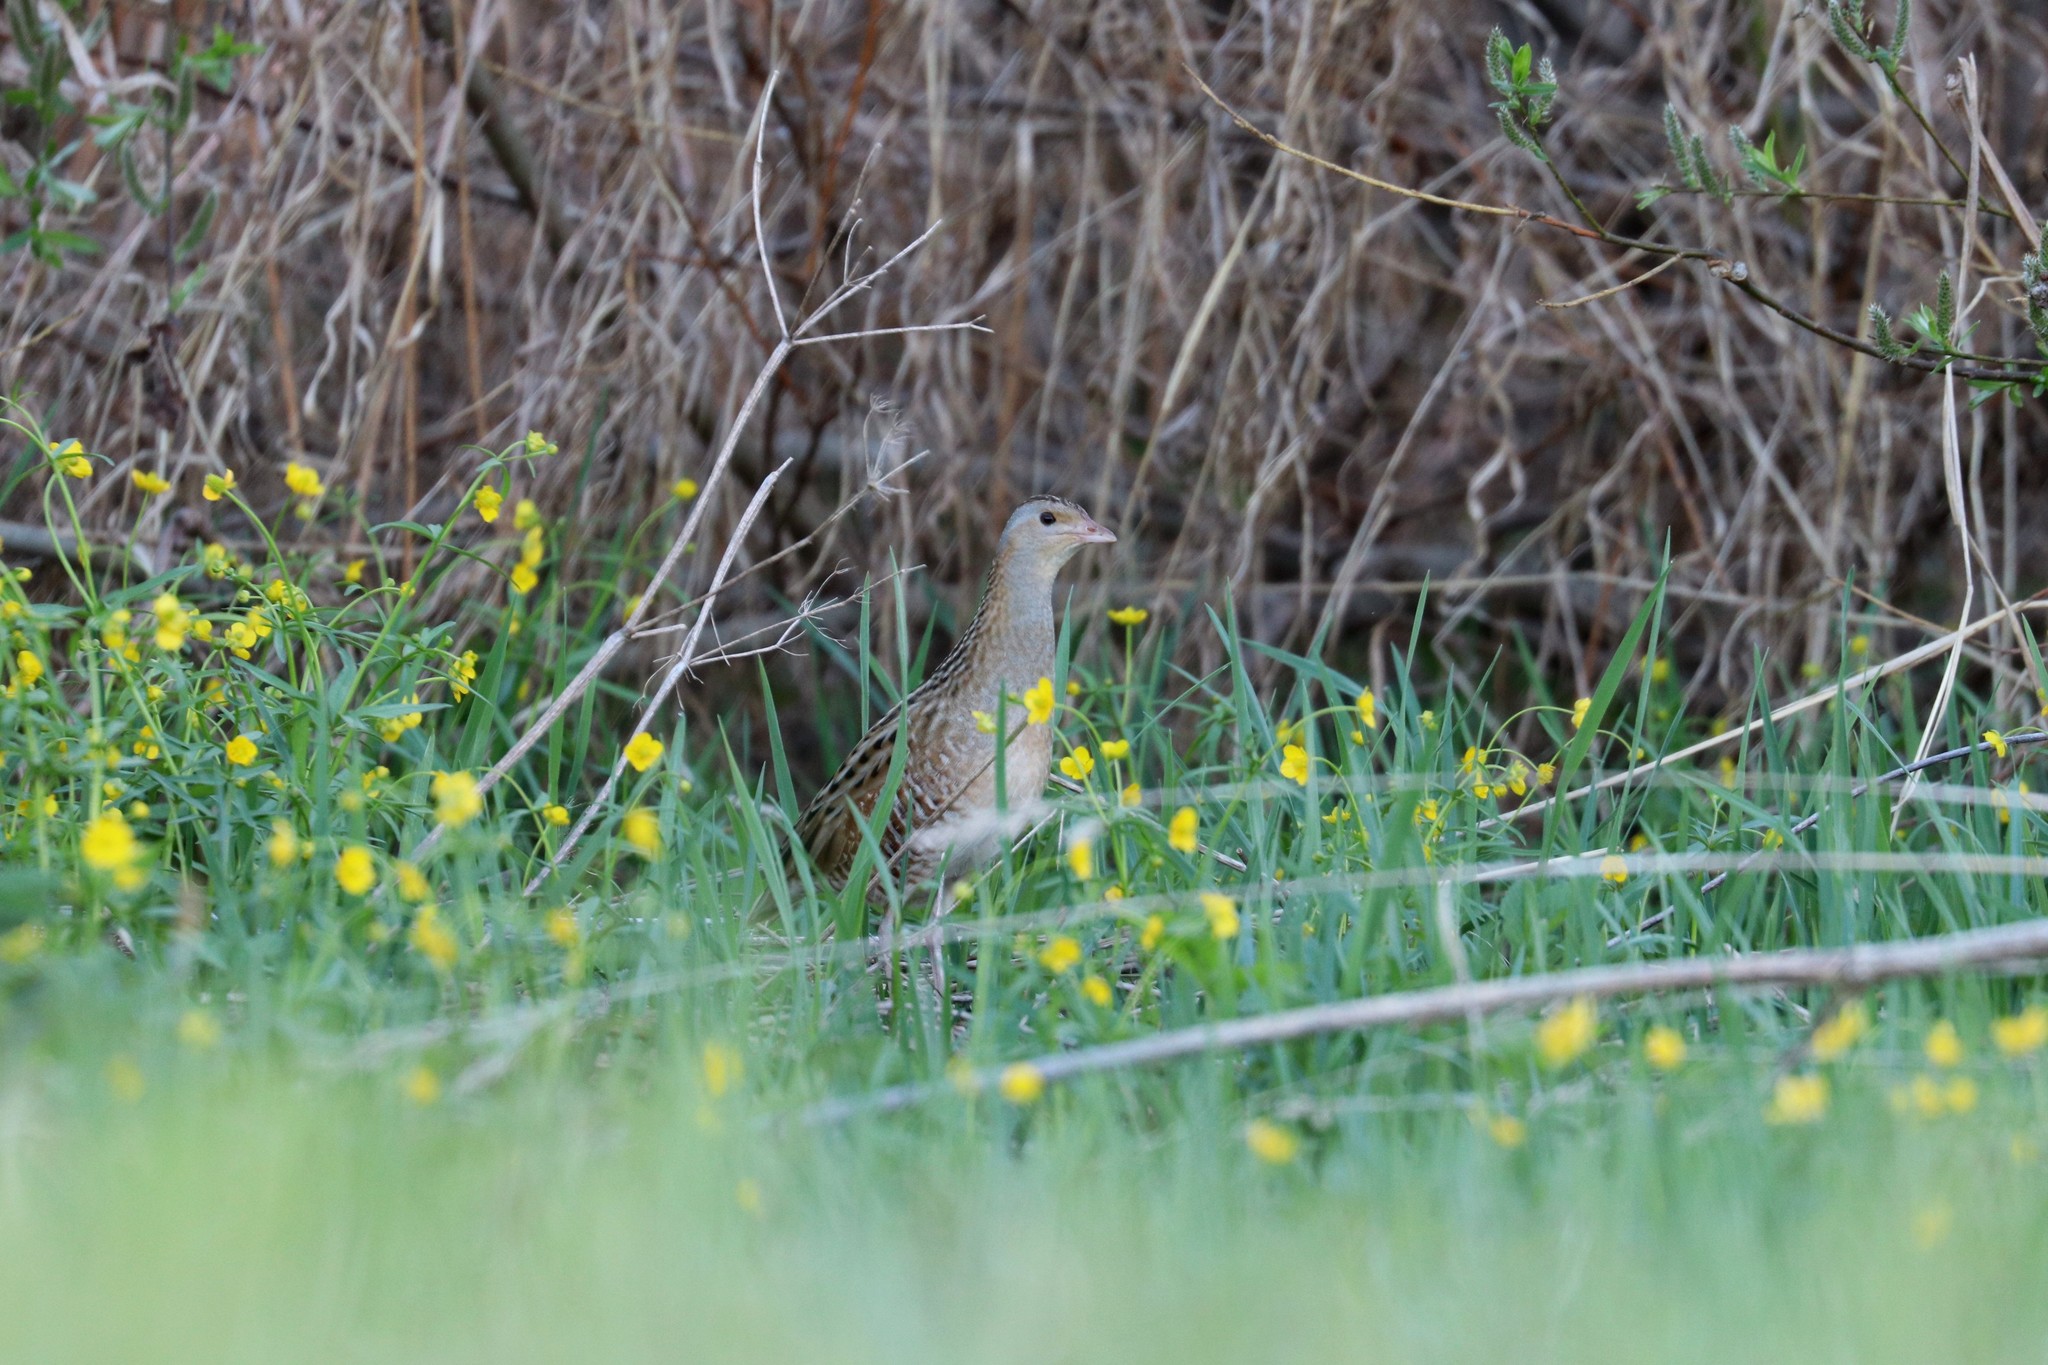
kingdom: Animalia
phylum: Chordata
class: Aves
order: Gruiformes
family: Rallidae
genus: Crex
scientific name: Crex crex
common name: Corn crake
